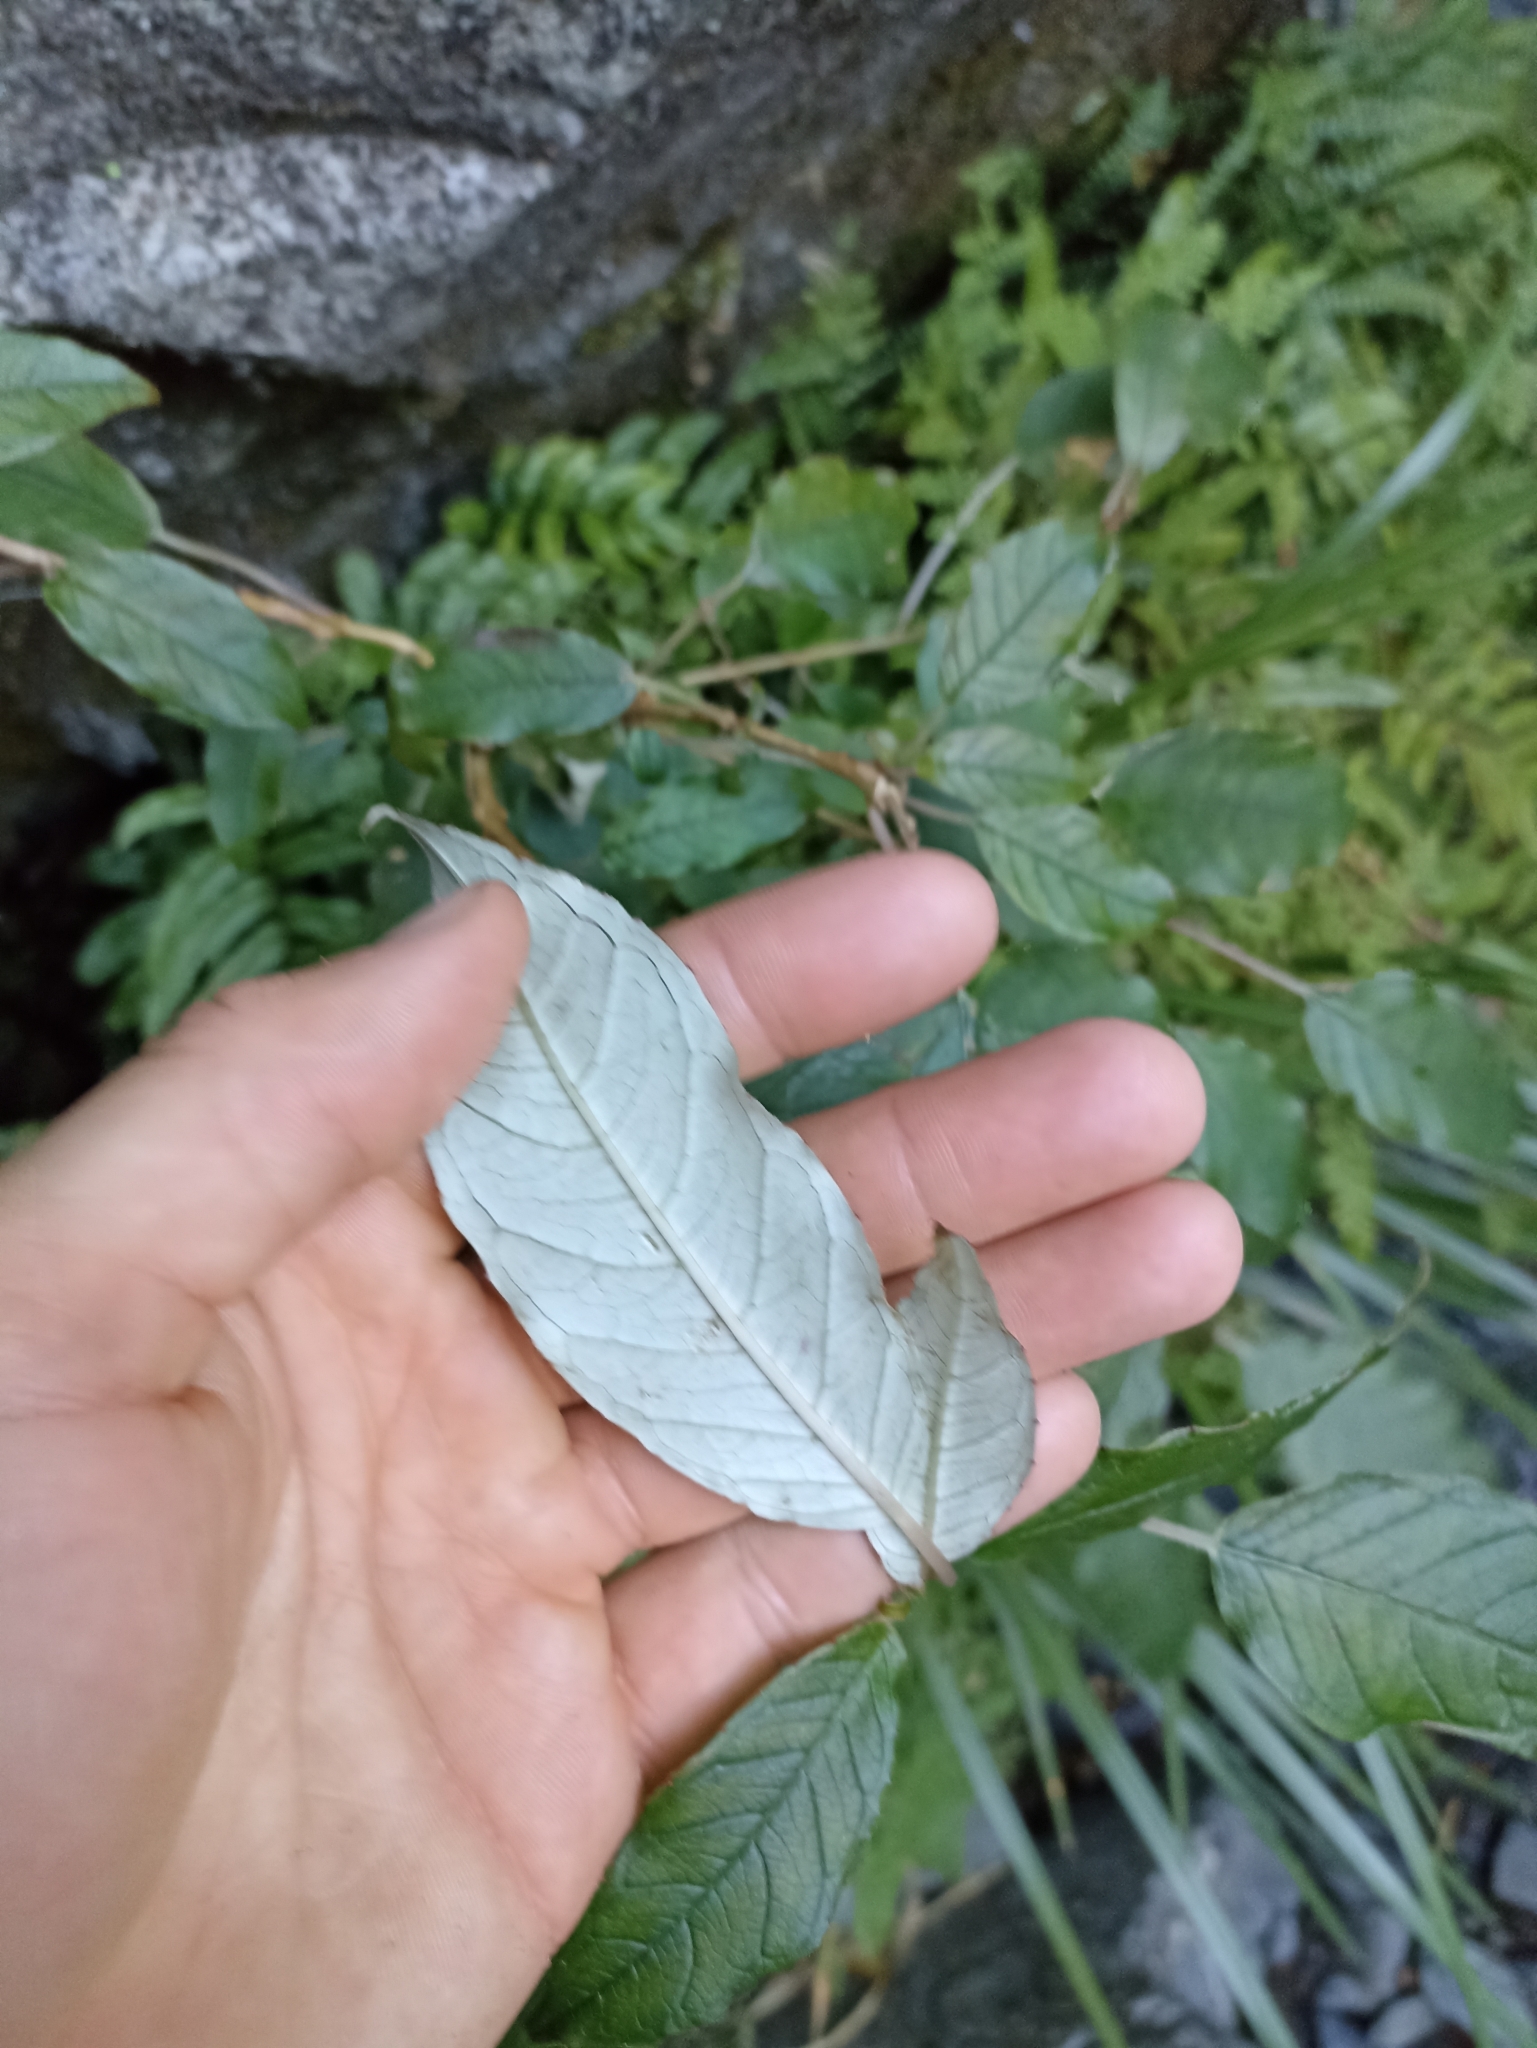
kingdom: Plantae
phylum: Tracheophyta
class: Magnoliopsida
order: Myrtales
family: Onagraceae
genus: Fuchsia
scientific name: Fuchsia excorticata
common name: Tree fuchsia
